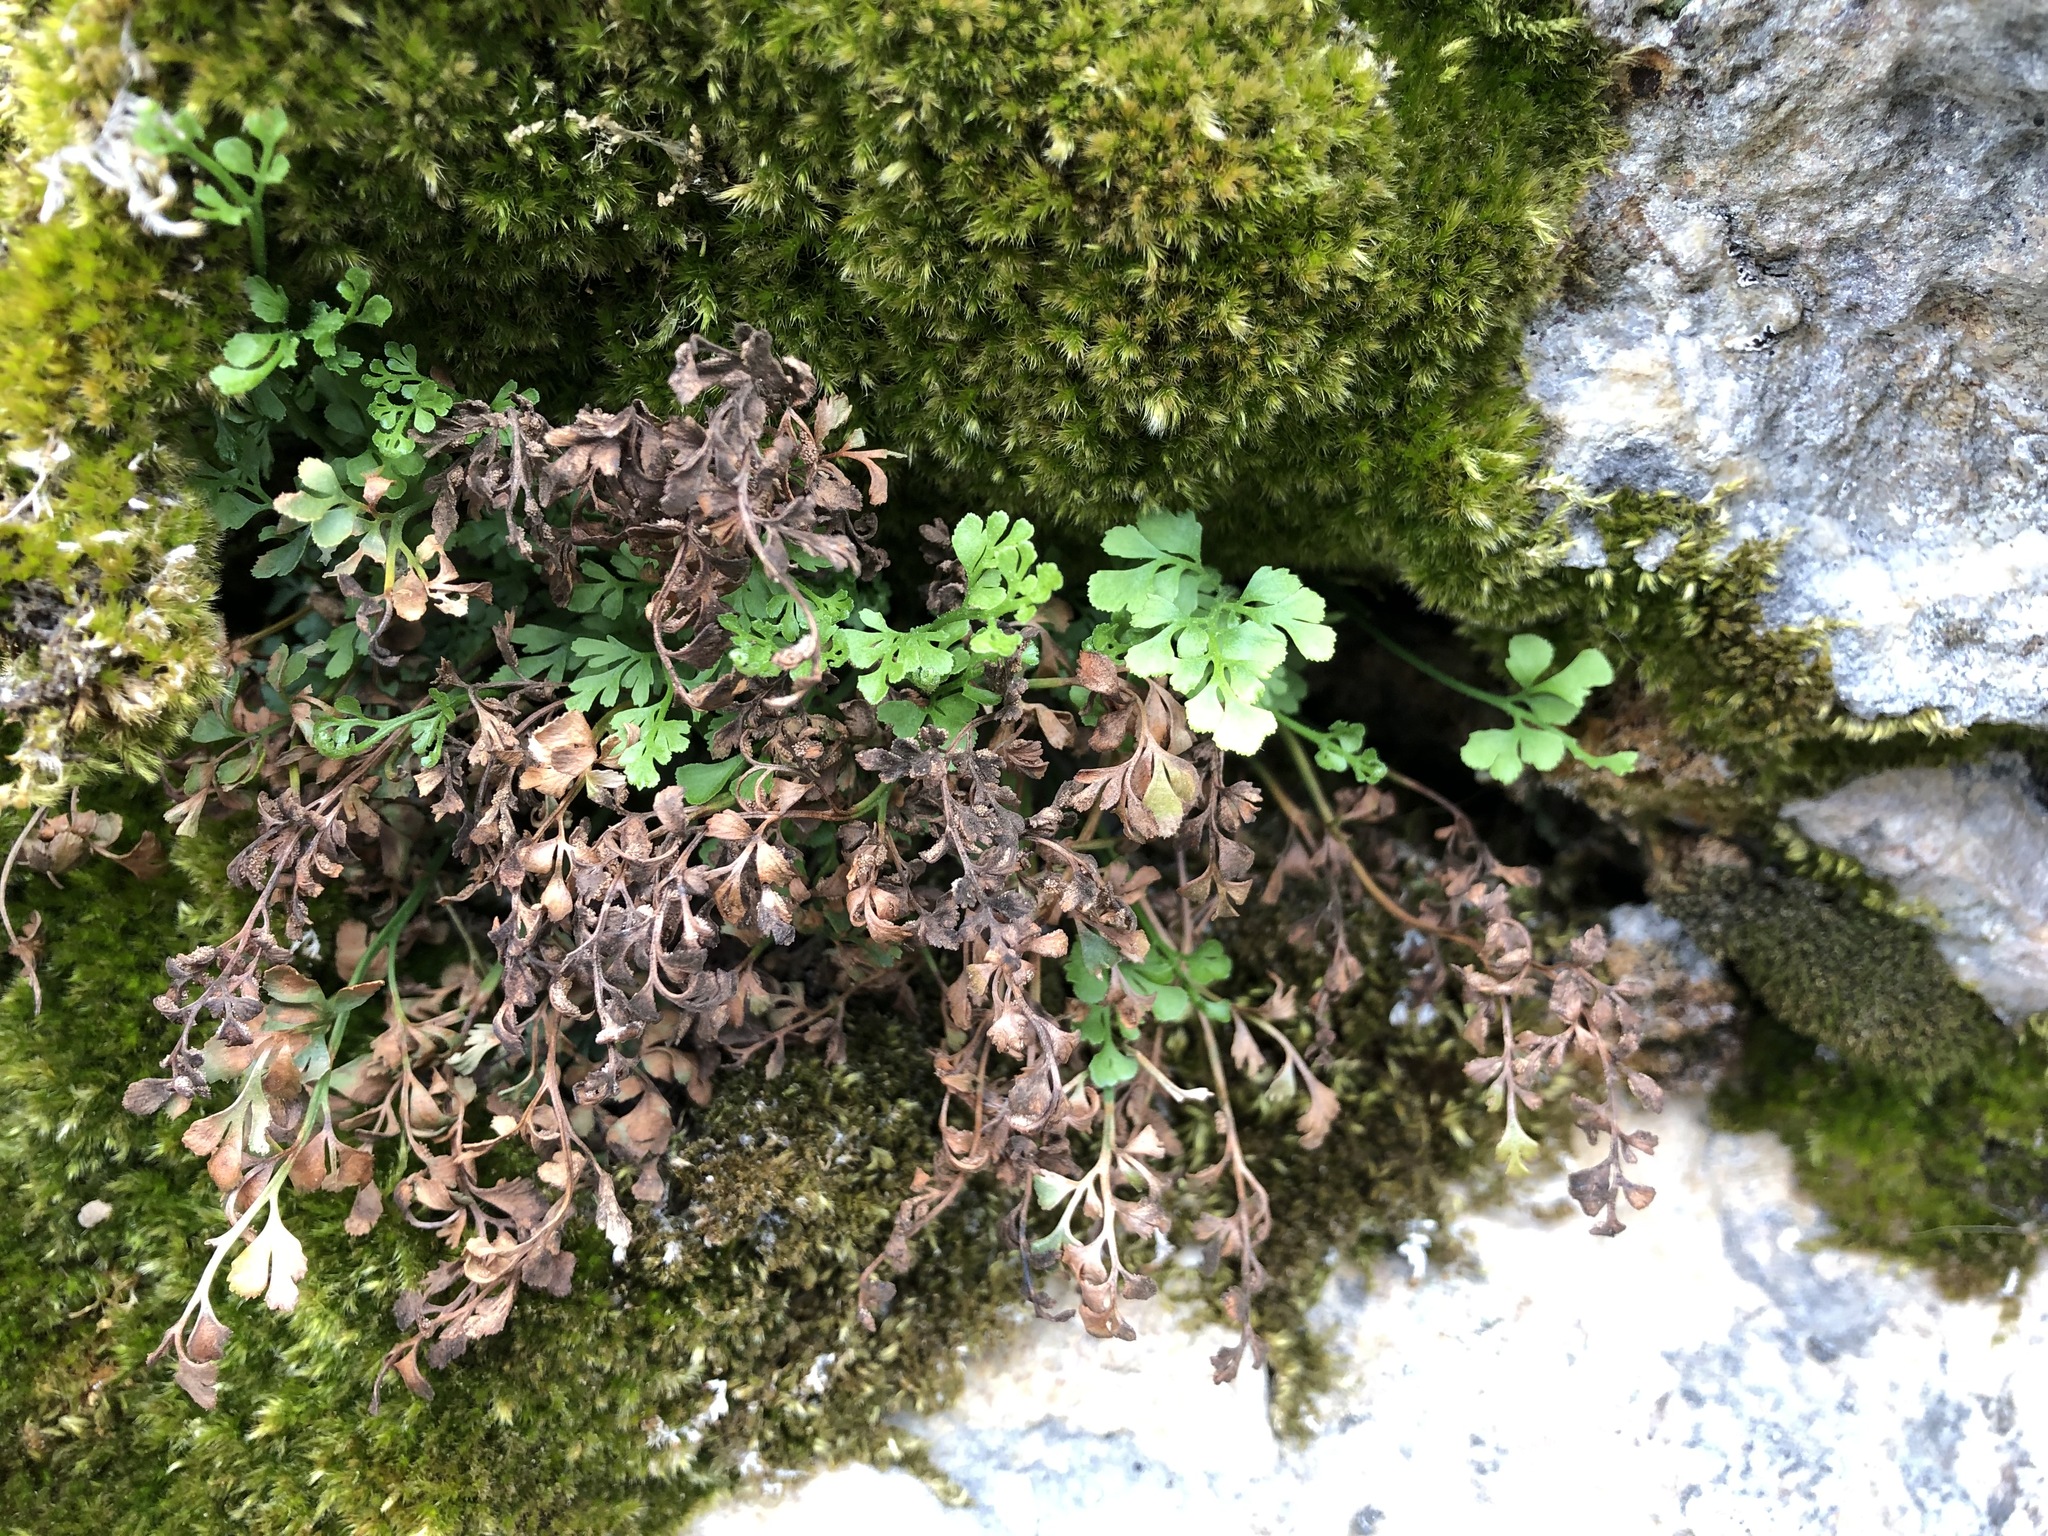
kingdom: Plantae
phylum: Tracheophyta
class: Polypodiopsida
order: Polypodiales
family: Aspleniaceae
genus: Asplenium
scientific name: Asplenium ruta-muraria
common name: Wall-rue
